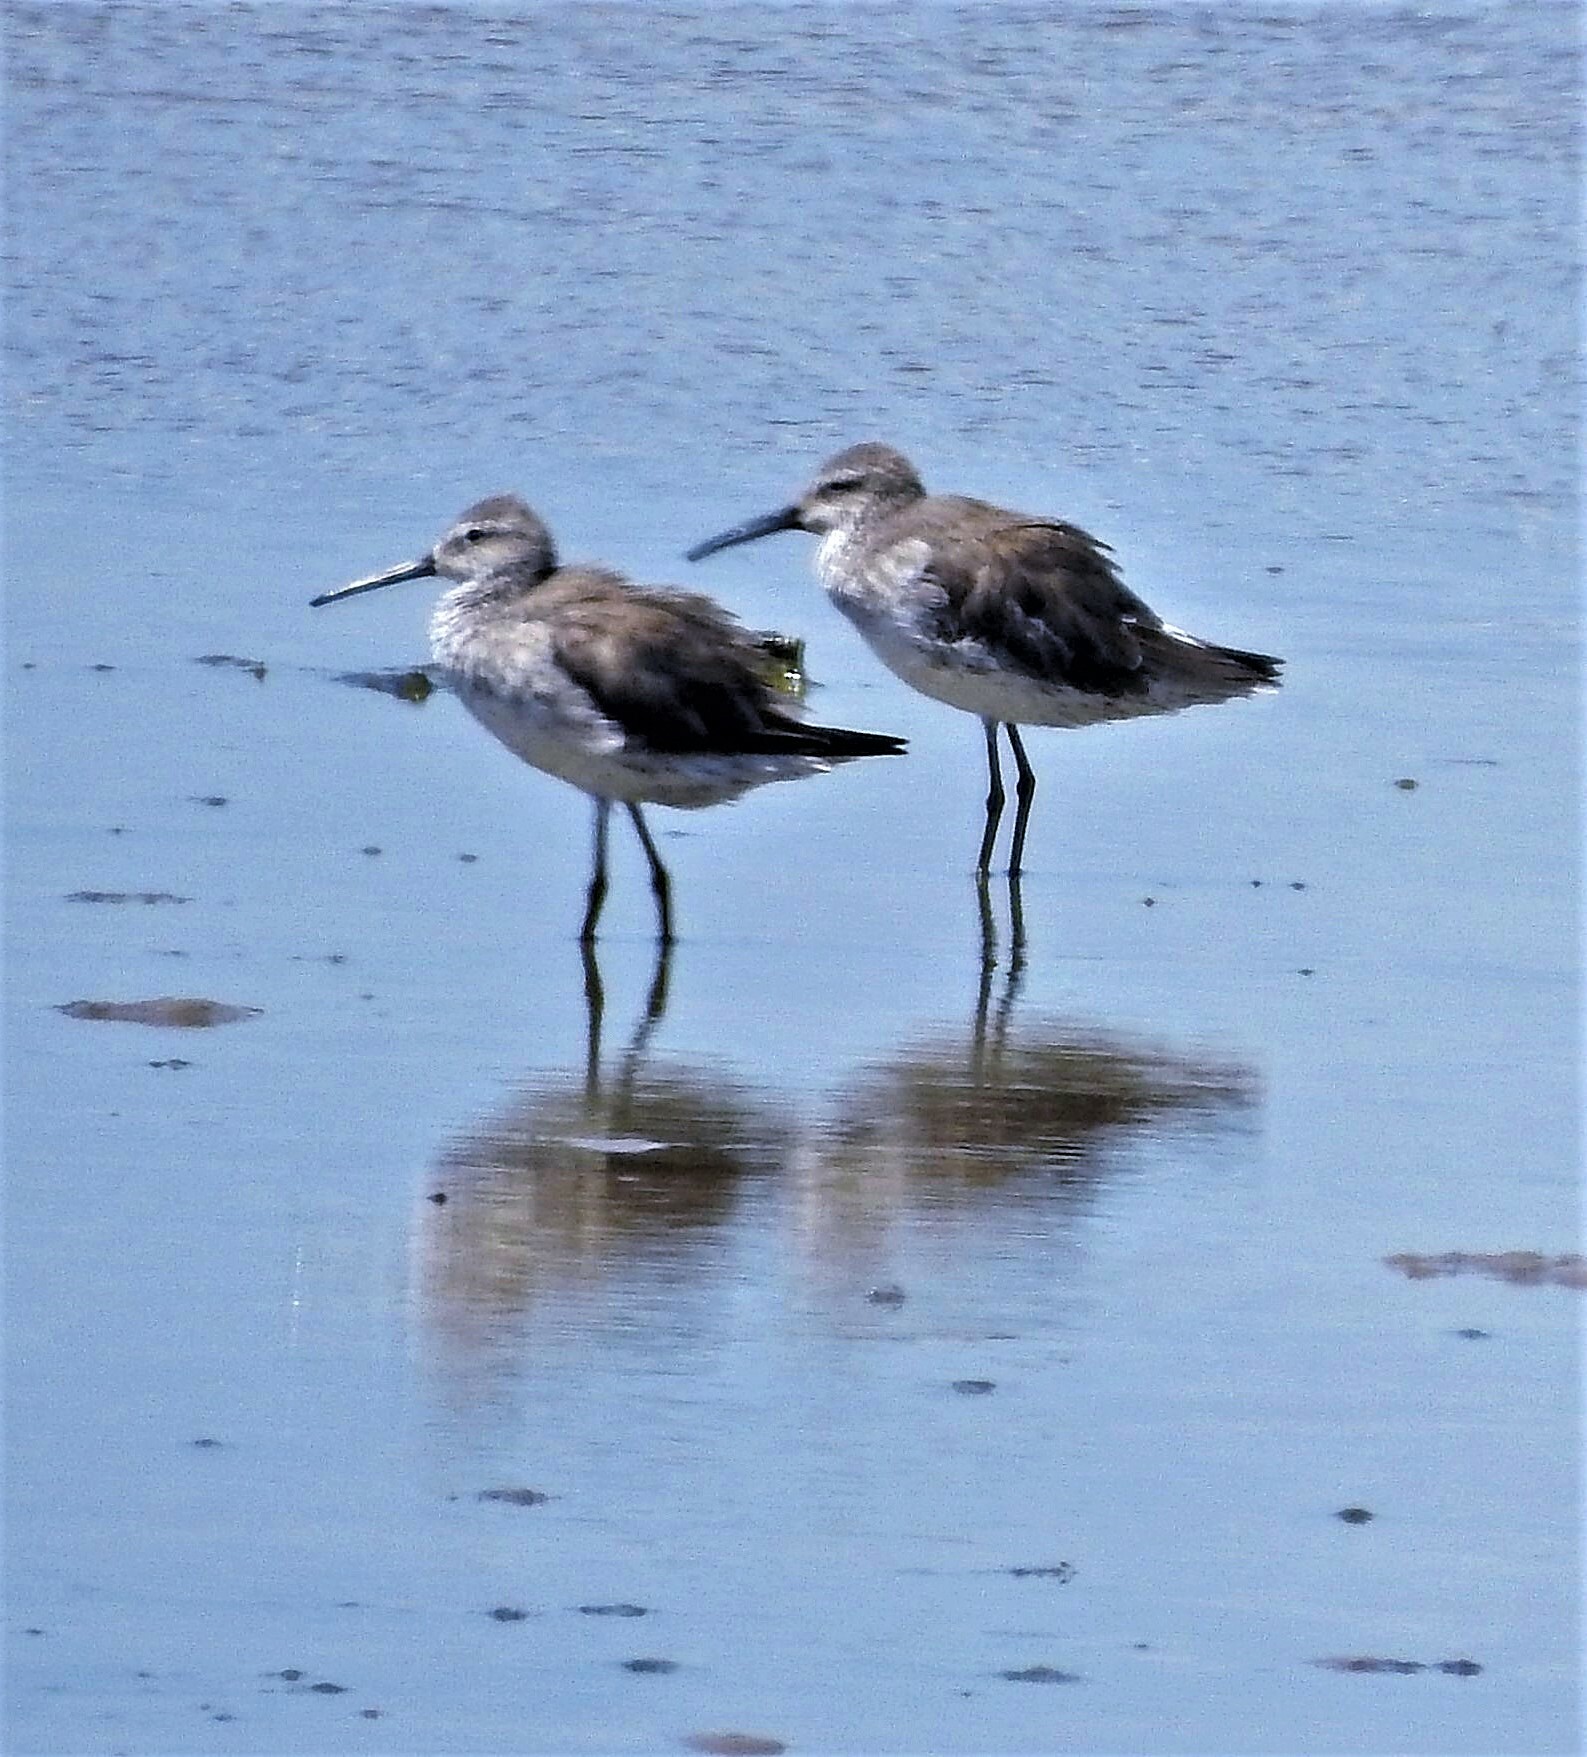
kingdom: Animalia
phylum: Chordata
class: Aves
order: Charadriiformes
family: Scolopacidae
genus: Calidris
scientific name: Calidris himantopus
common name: Stilt sandpiper
